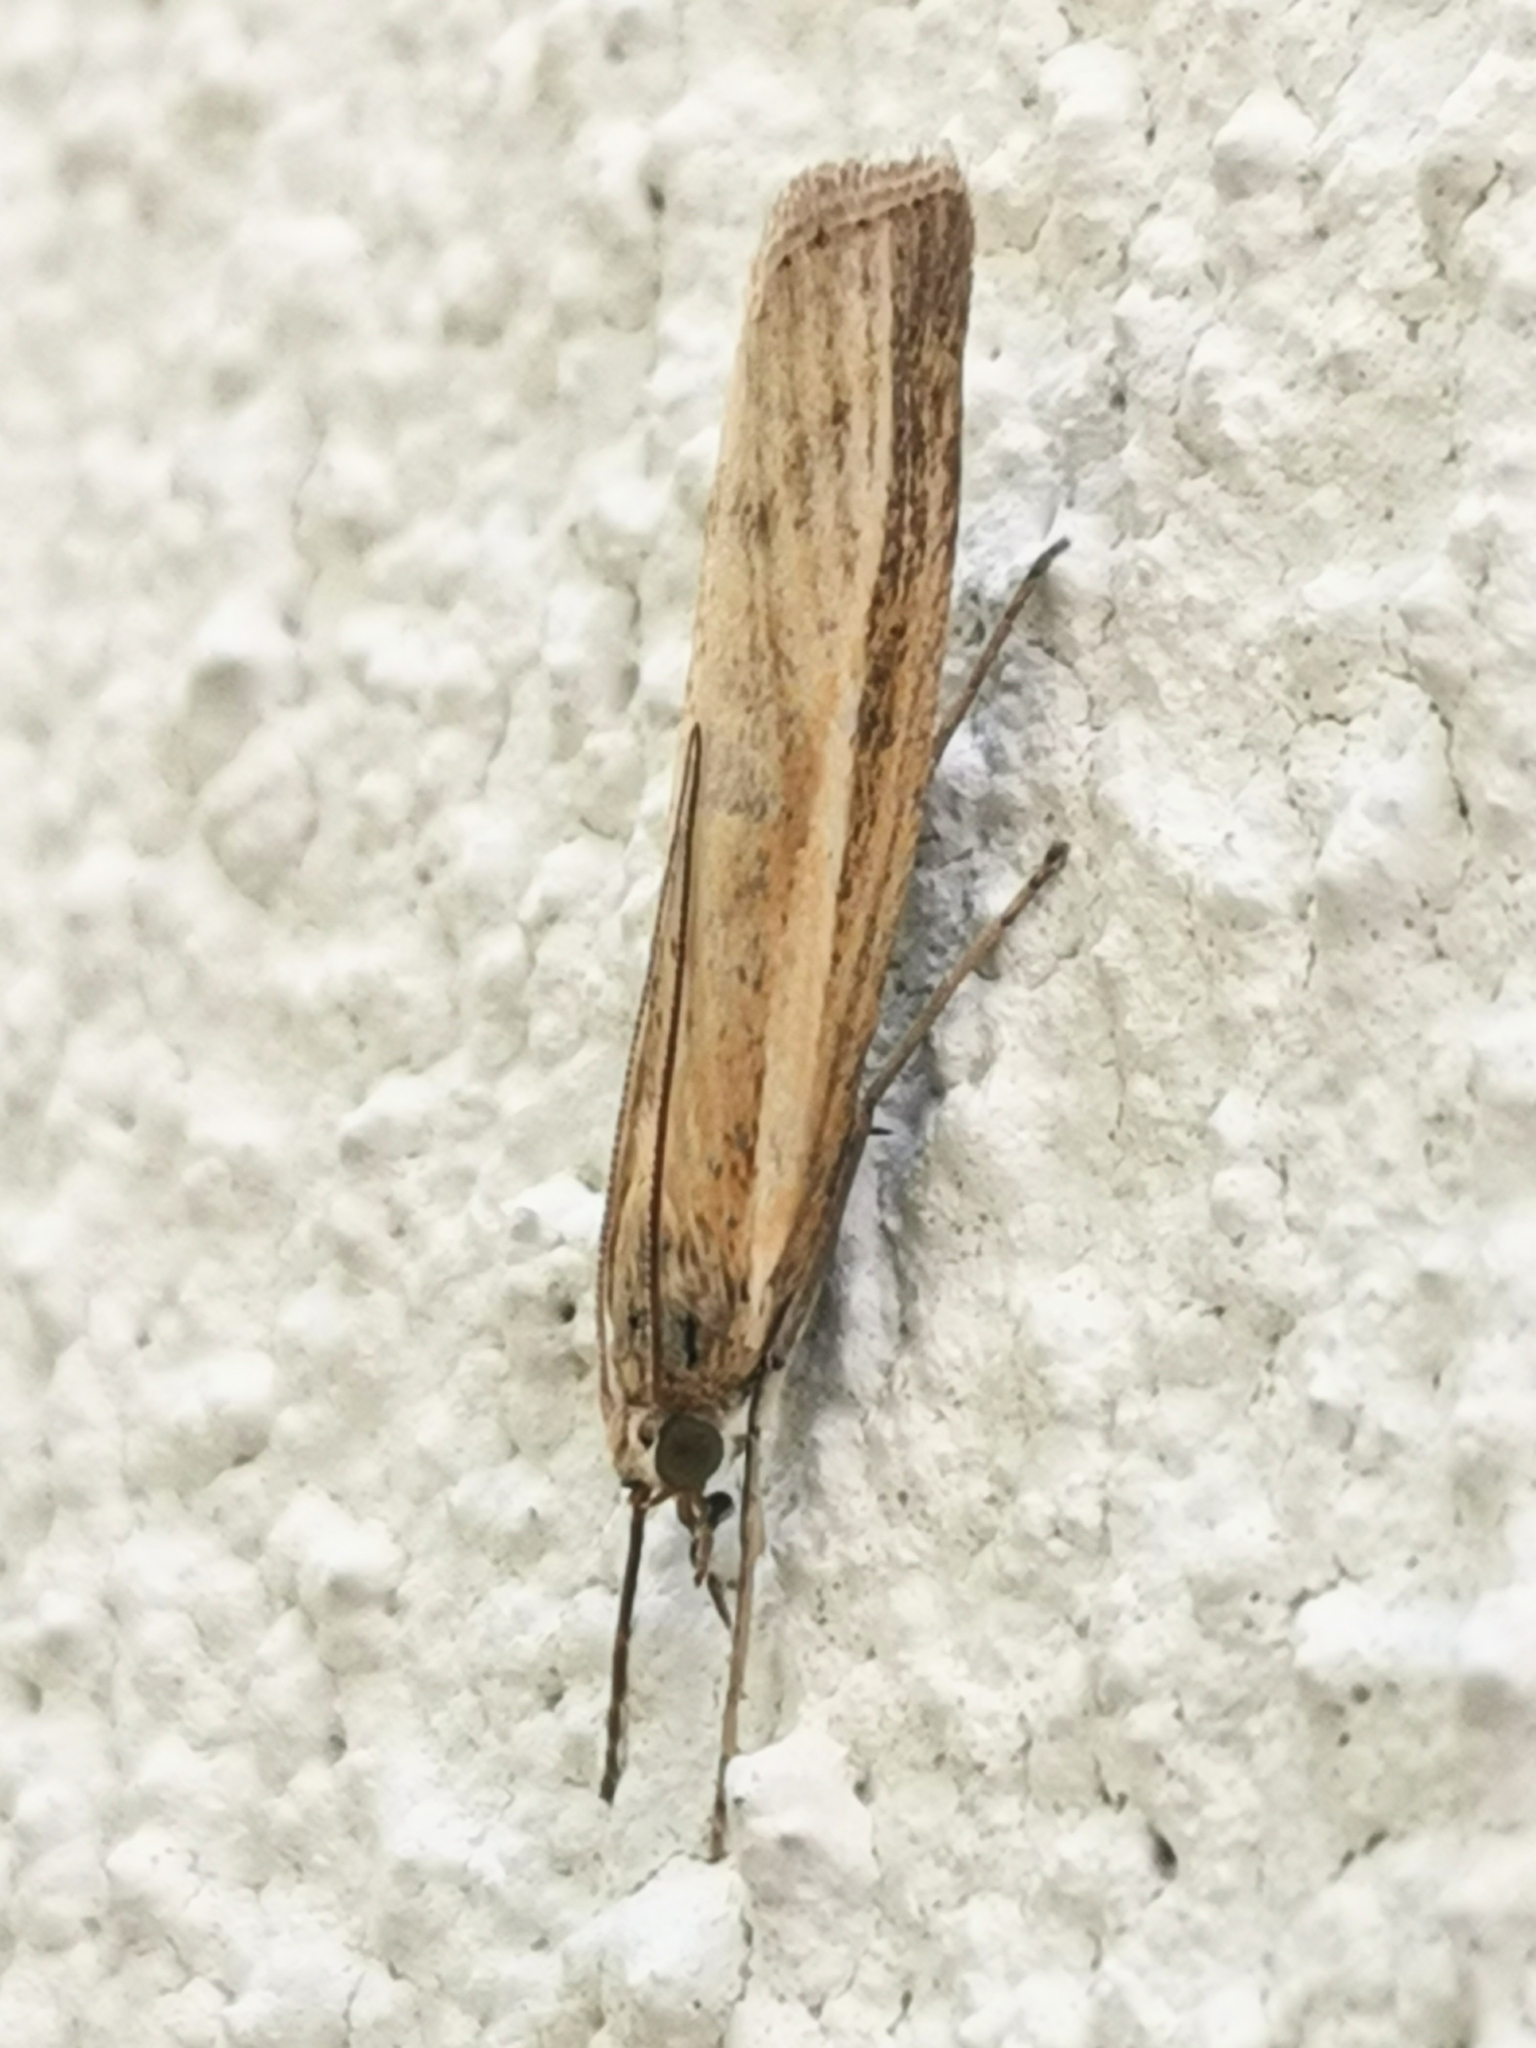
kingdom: Animalia
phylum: Arthropoda
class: Insecta
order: Lepidoptera
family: Crambidae
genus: Agriphila
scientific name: Agriphila tristellus
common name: Common grass-veneer
